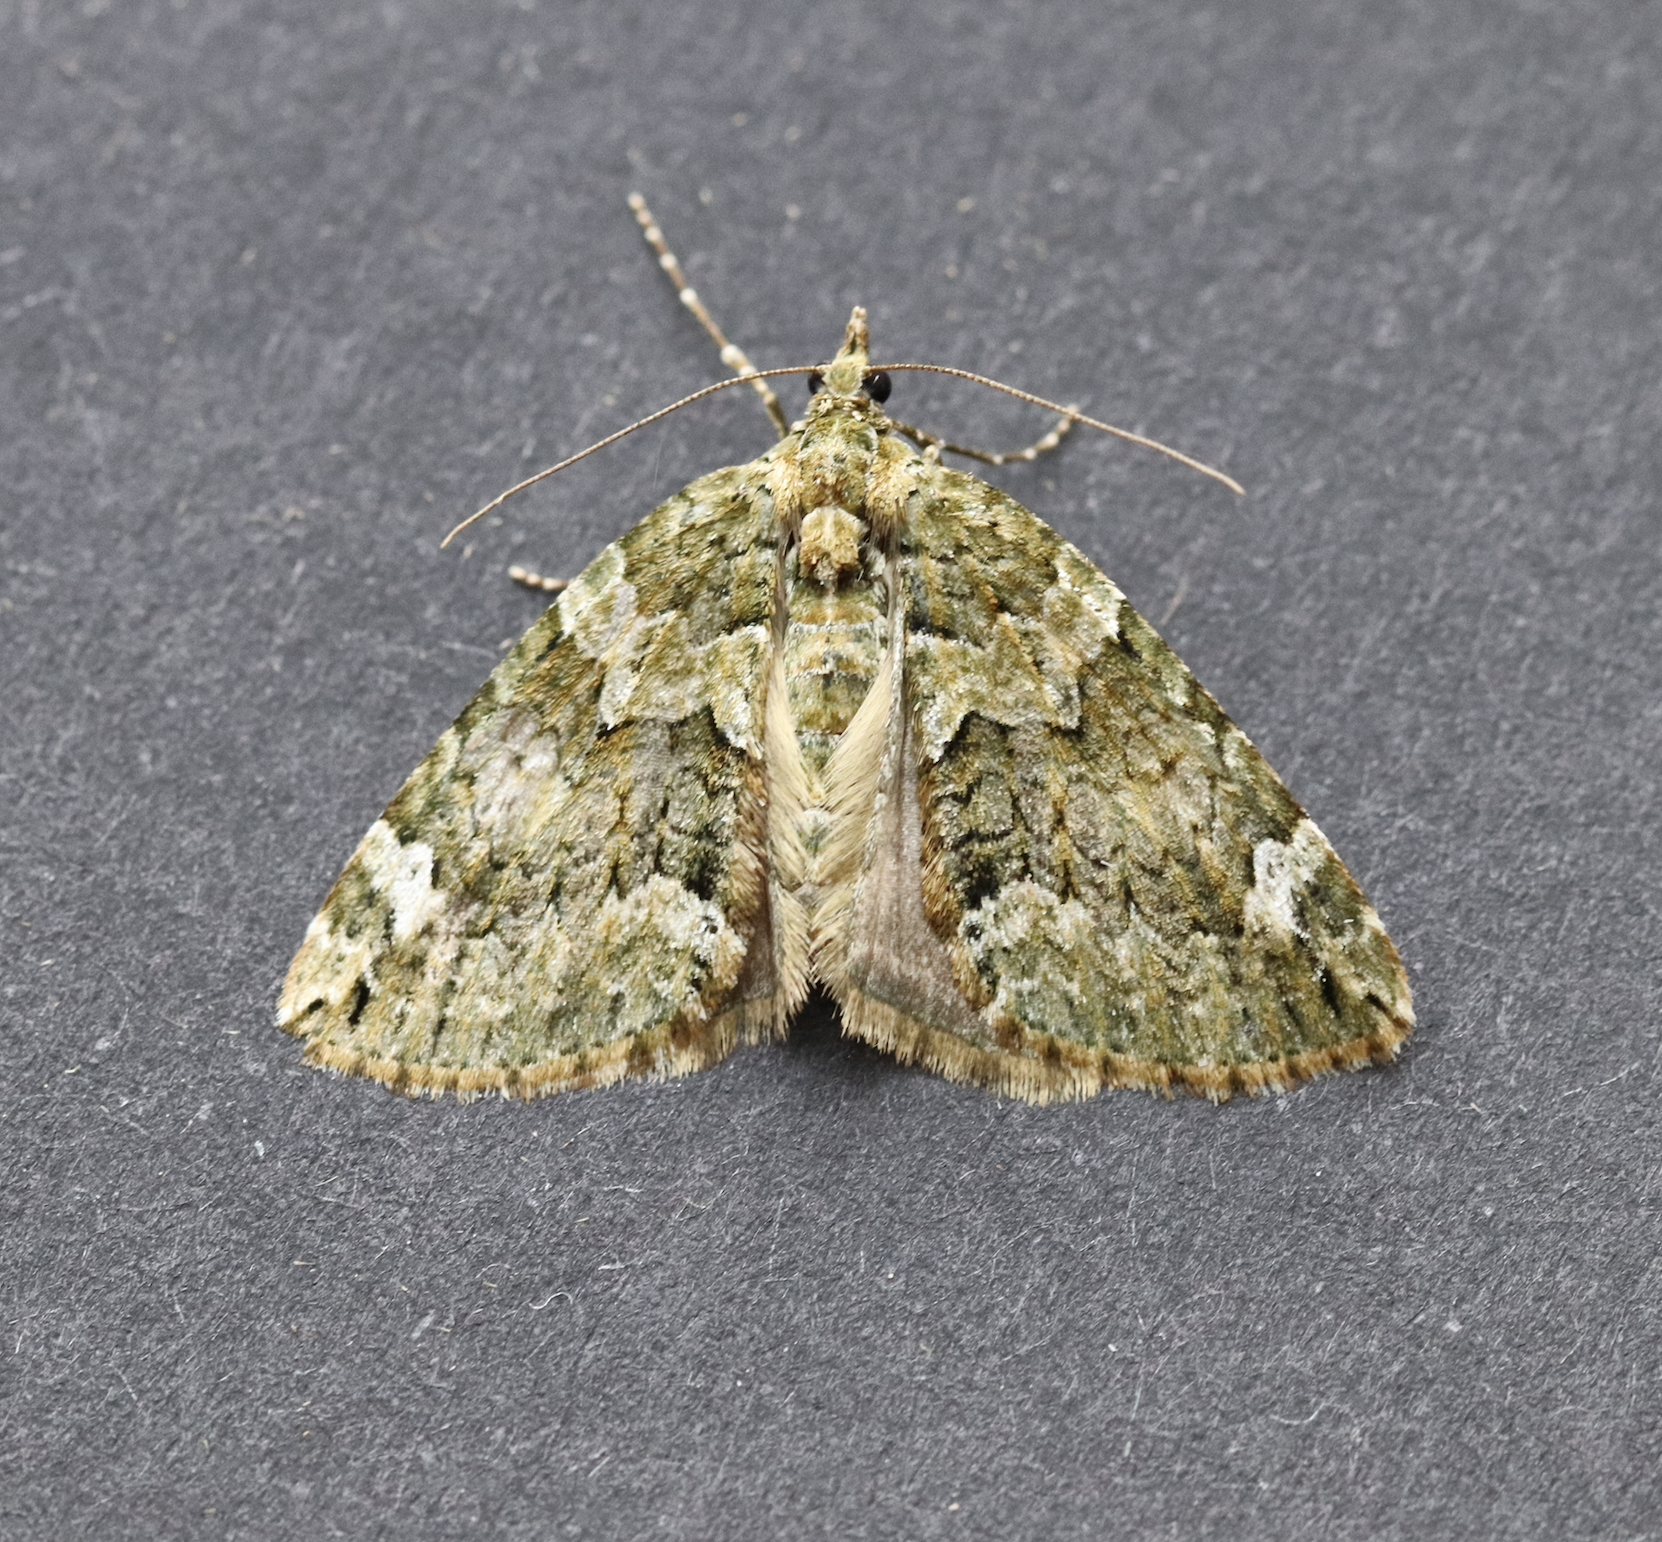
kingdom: Animalia
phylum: Arthropoda
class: Insecta
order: Lepidoptera
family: Geometridae
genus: Chloroclysta
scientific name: Chloroclysta siterata
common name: Red-green carpet
